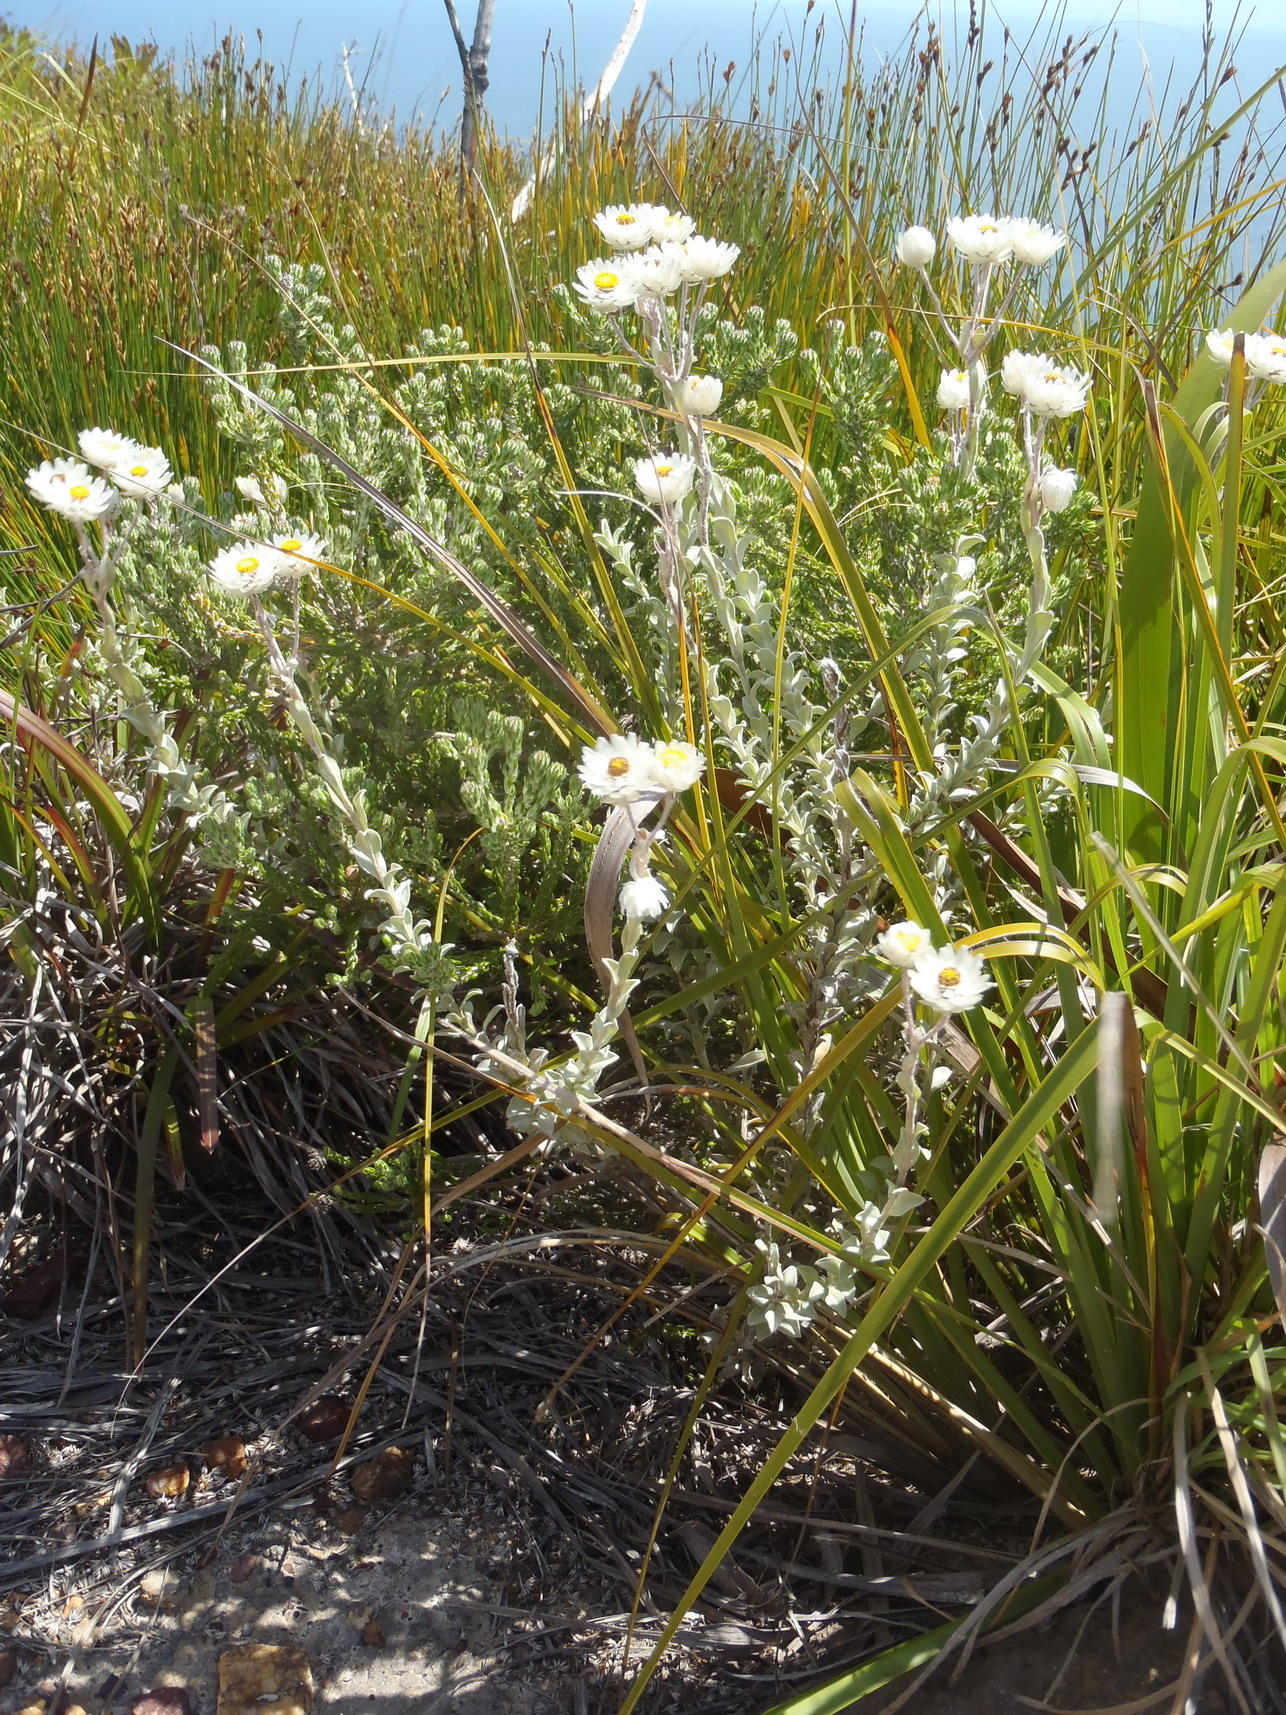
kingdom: Plantae
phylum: Tracheophyta
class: Magnoliopsida
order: Asterales
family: Asteraceae
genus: Achyranthemum
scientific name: Achyranthemum argenteum
